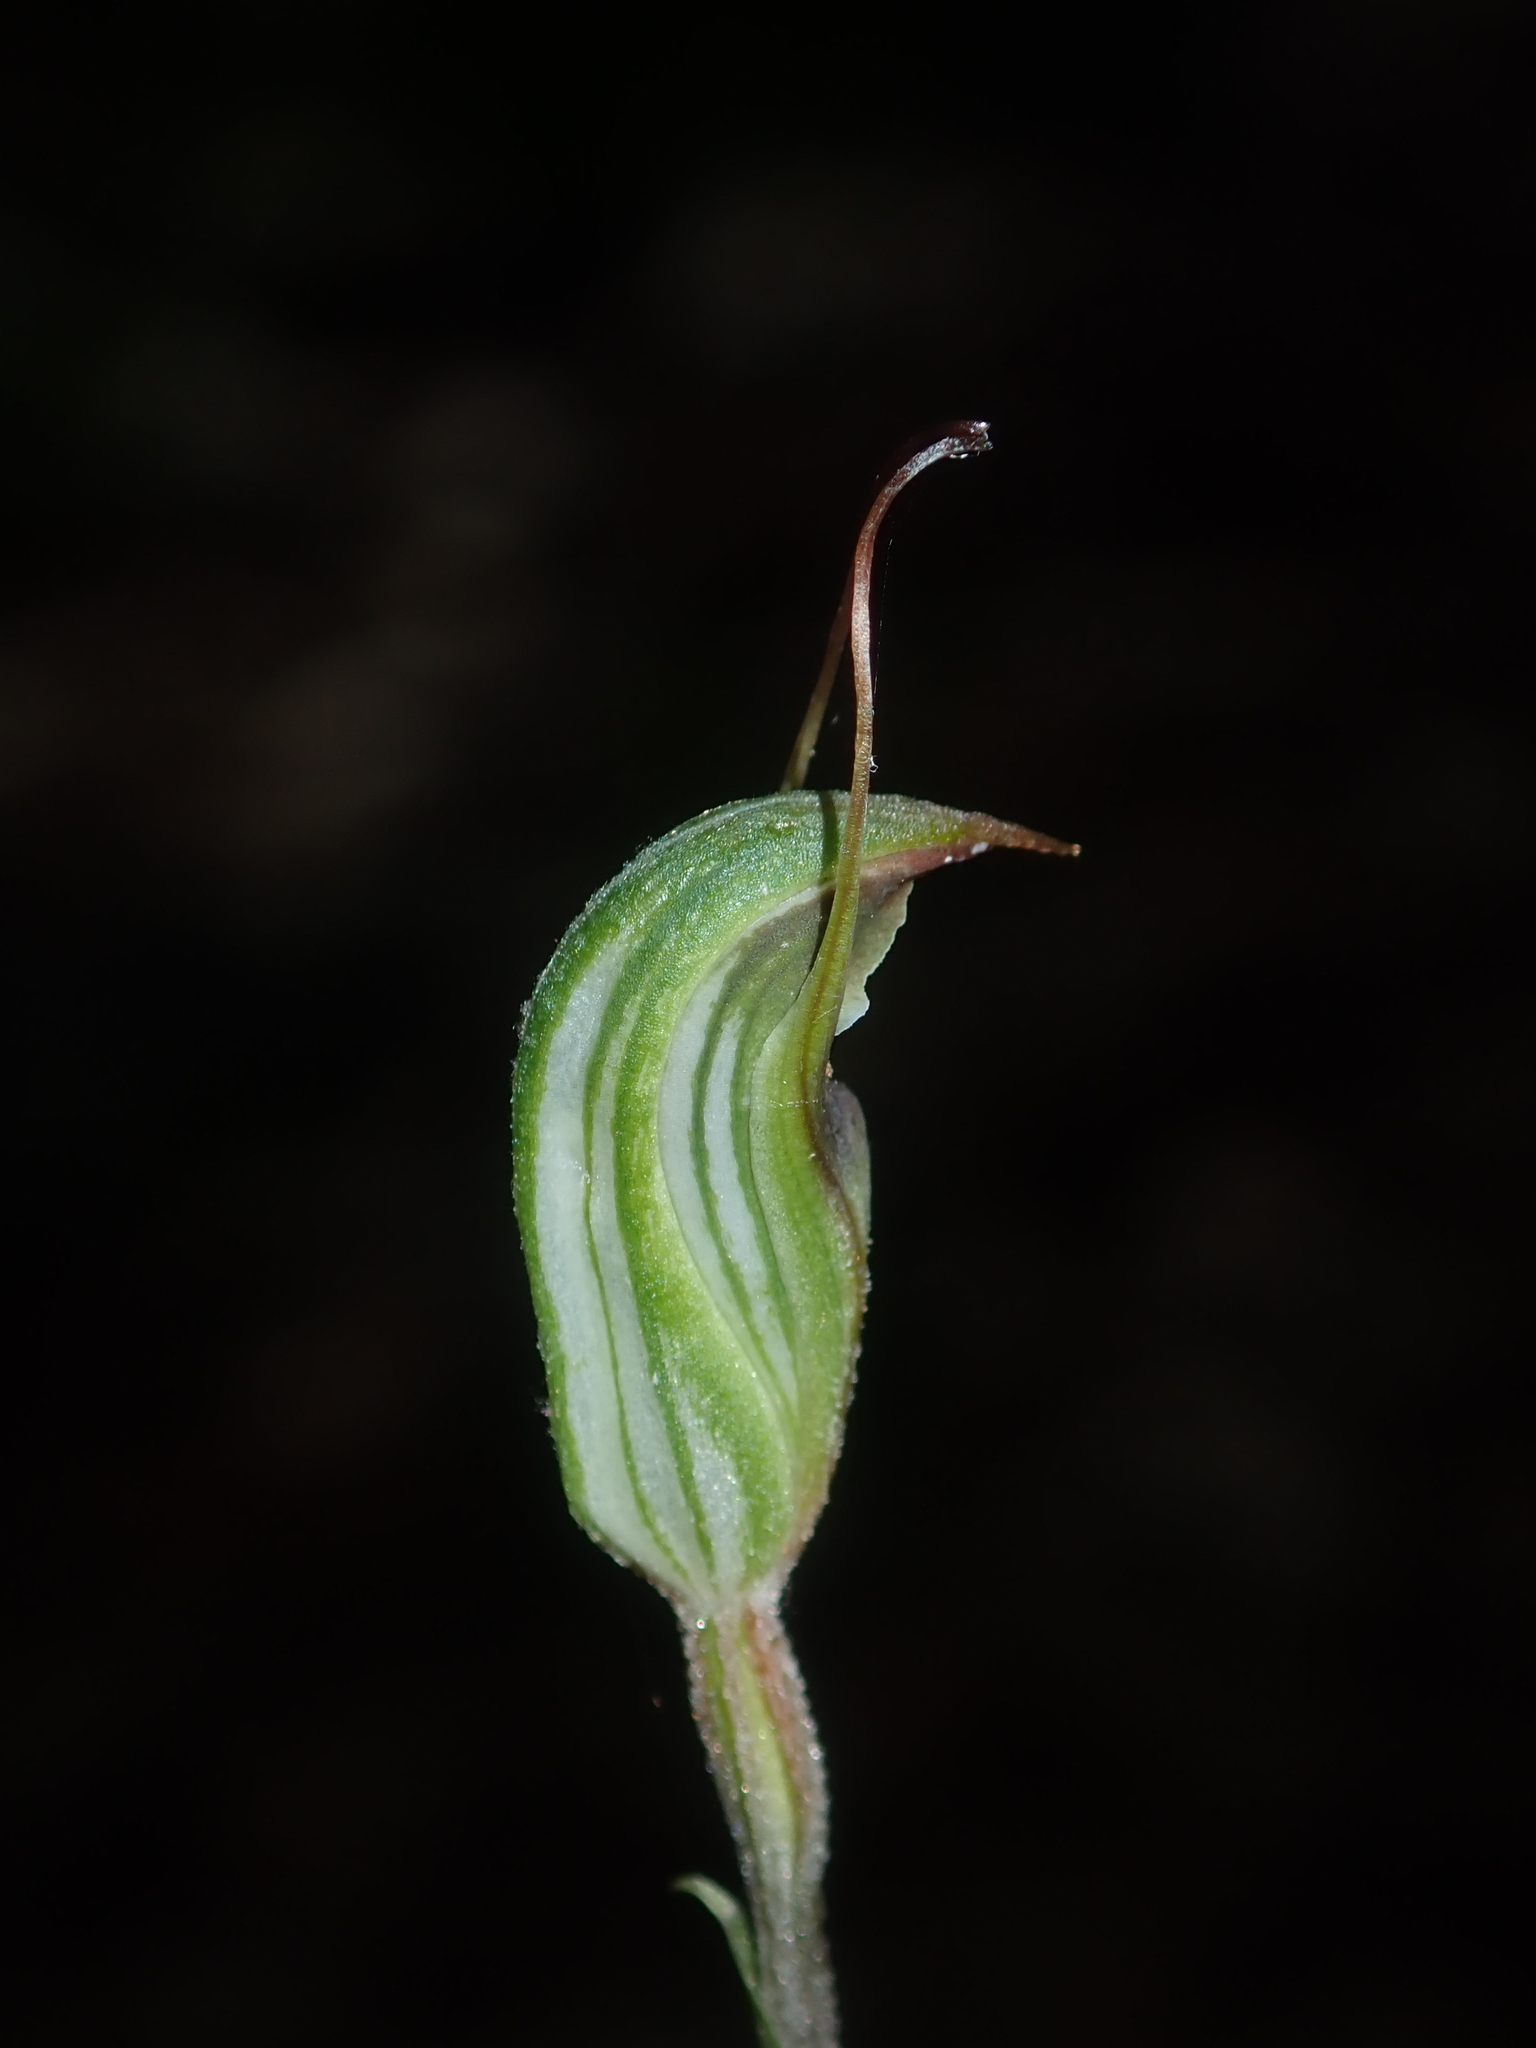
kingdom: Plantae
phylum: Tracheophyta
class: Liliopsida
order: Asparagales
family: Orchidaceae
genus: Pterostylis
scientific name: Pterostylis concinna
